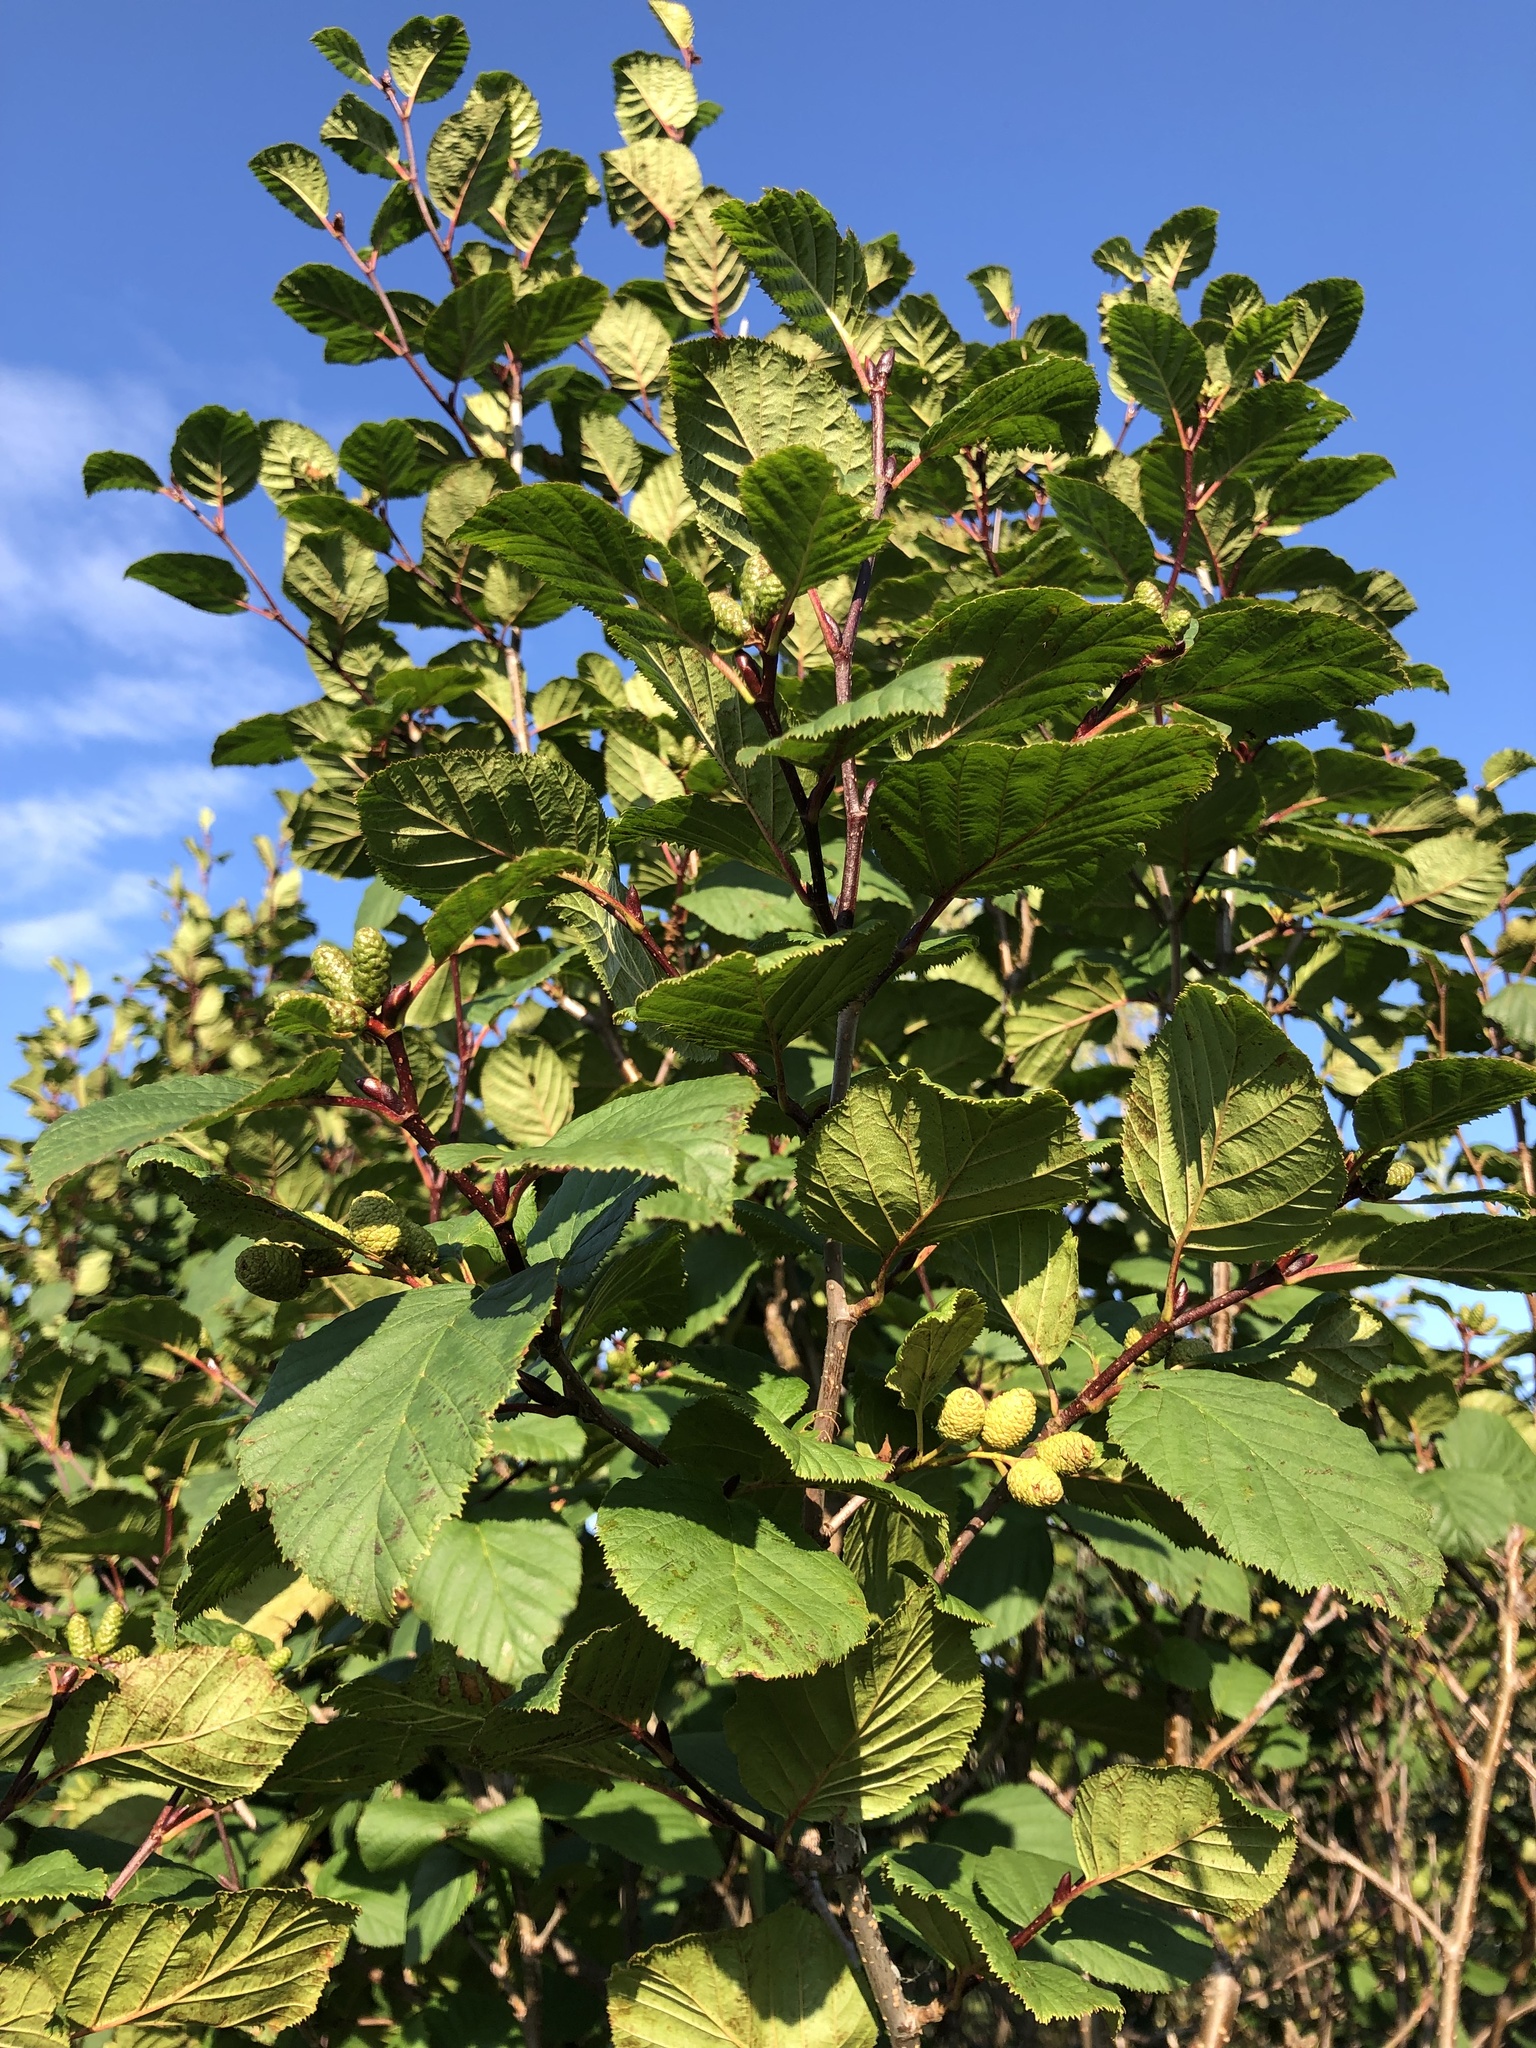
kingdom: Plantae
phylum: Tracheophyta
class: Magnoliopsida
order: Fagales
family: Betulaceae
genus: Alnus
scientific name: Alnus alnobetula
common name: Green alder
